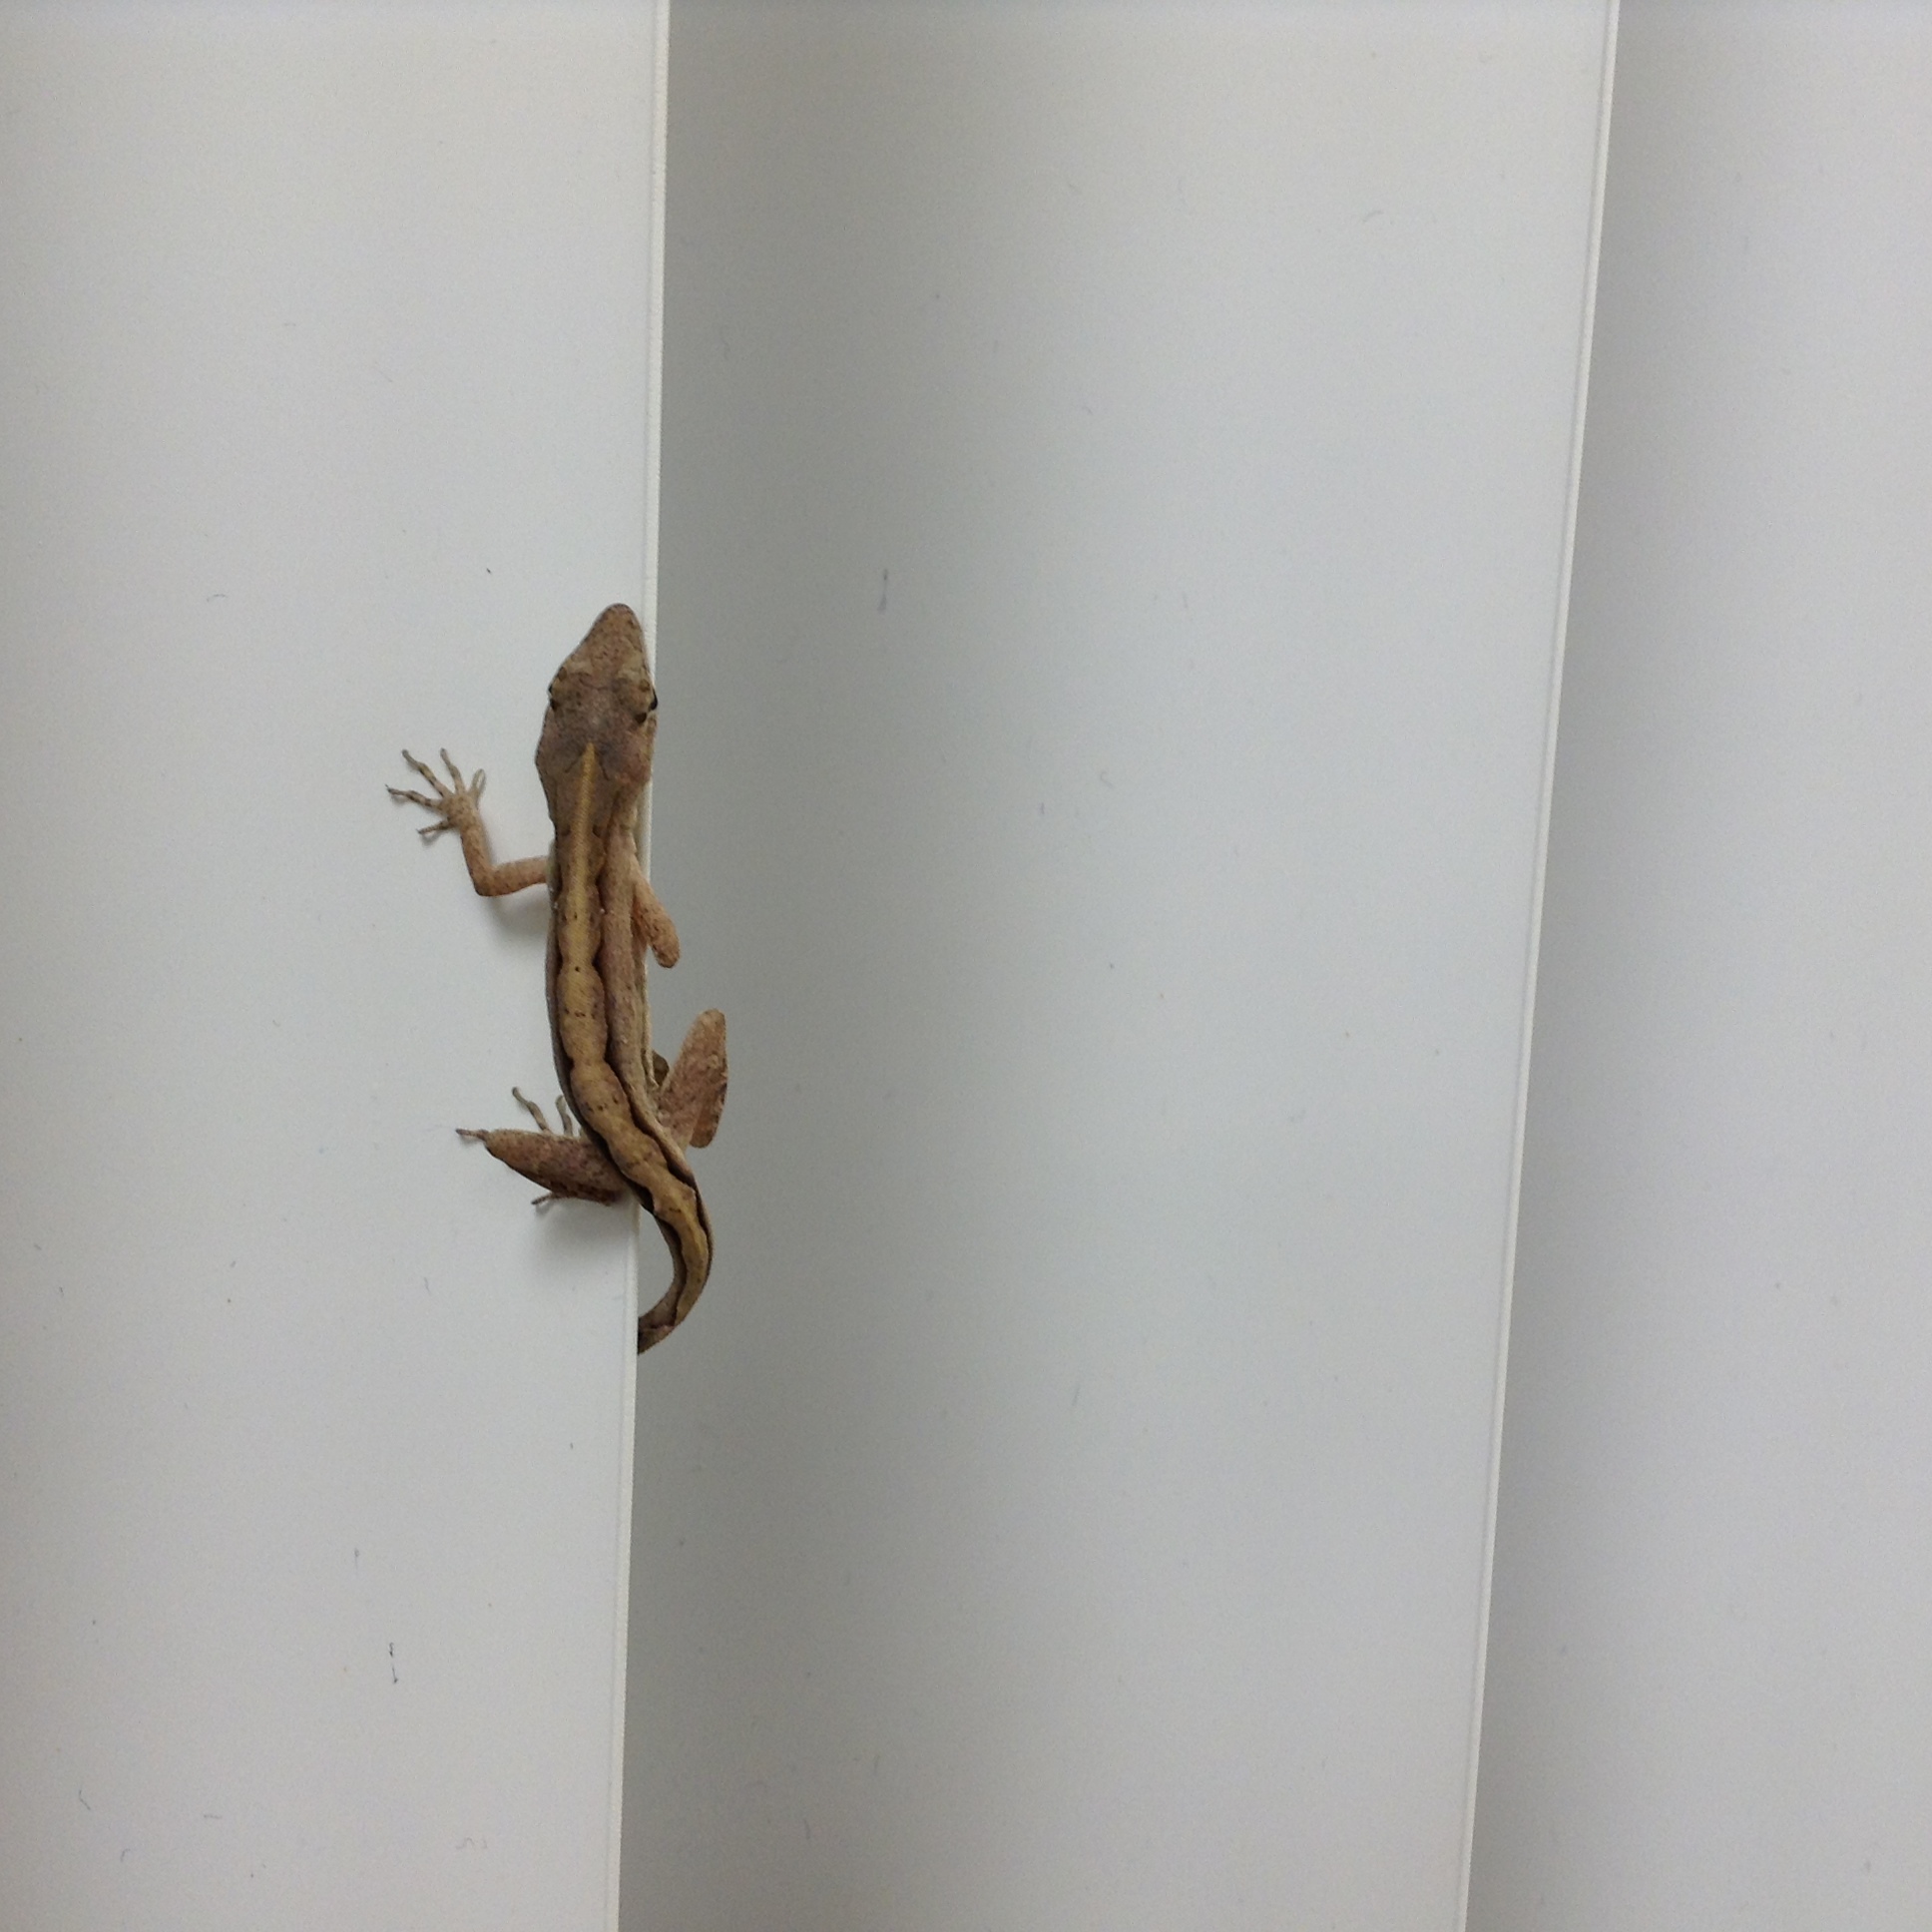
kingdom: Animalia
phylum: Chordata
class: Squamata
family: Dactyloidae
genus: Anolis
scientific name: Anolis sagrei
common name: Brown anole
